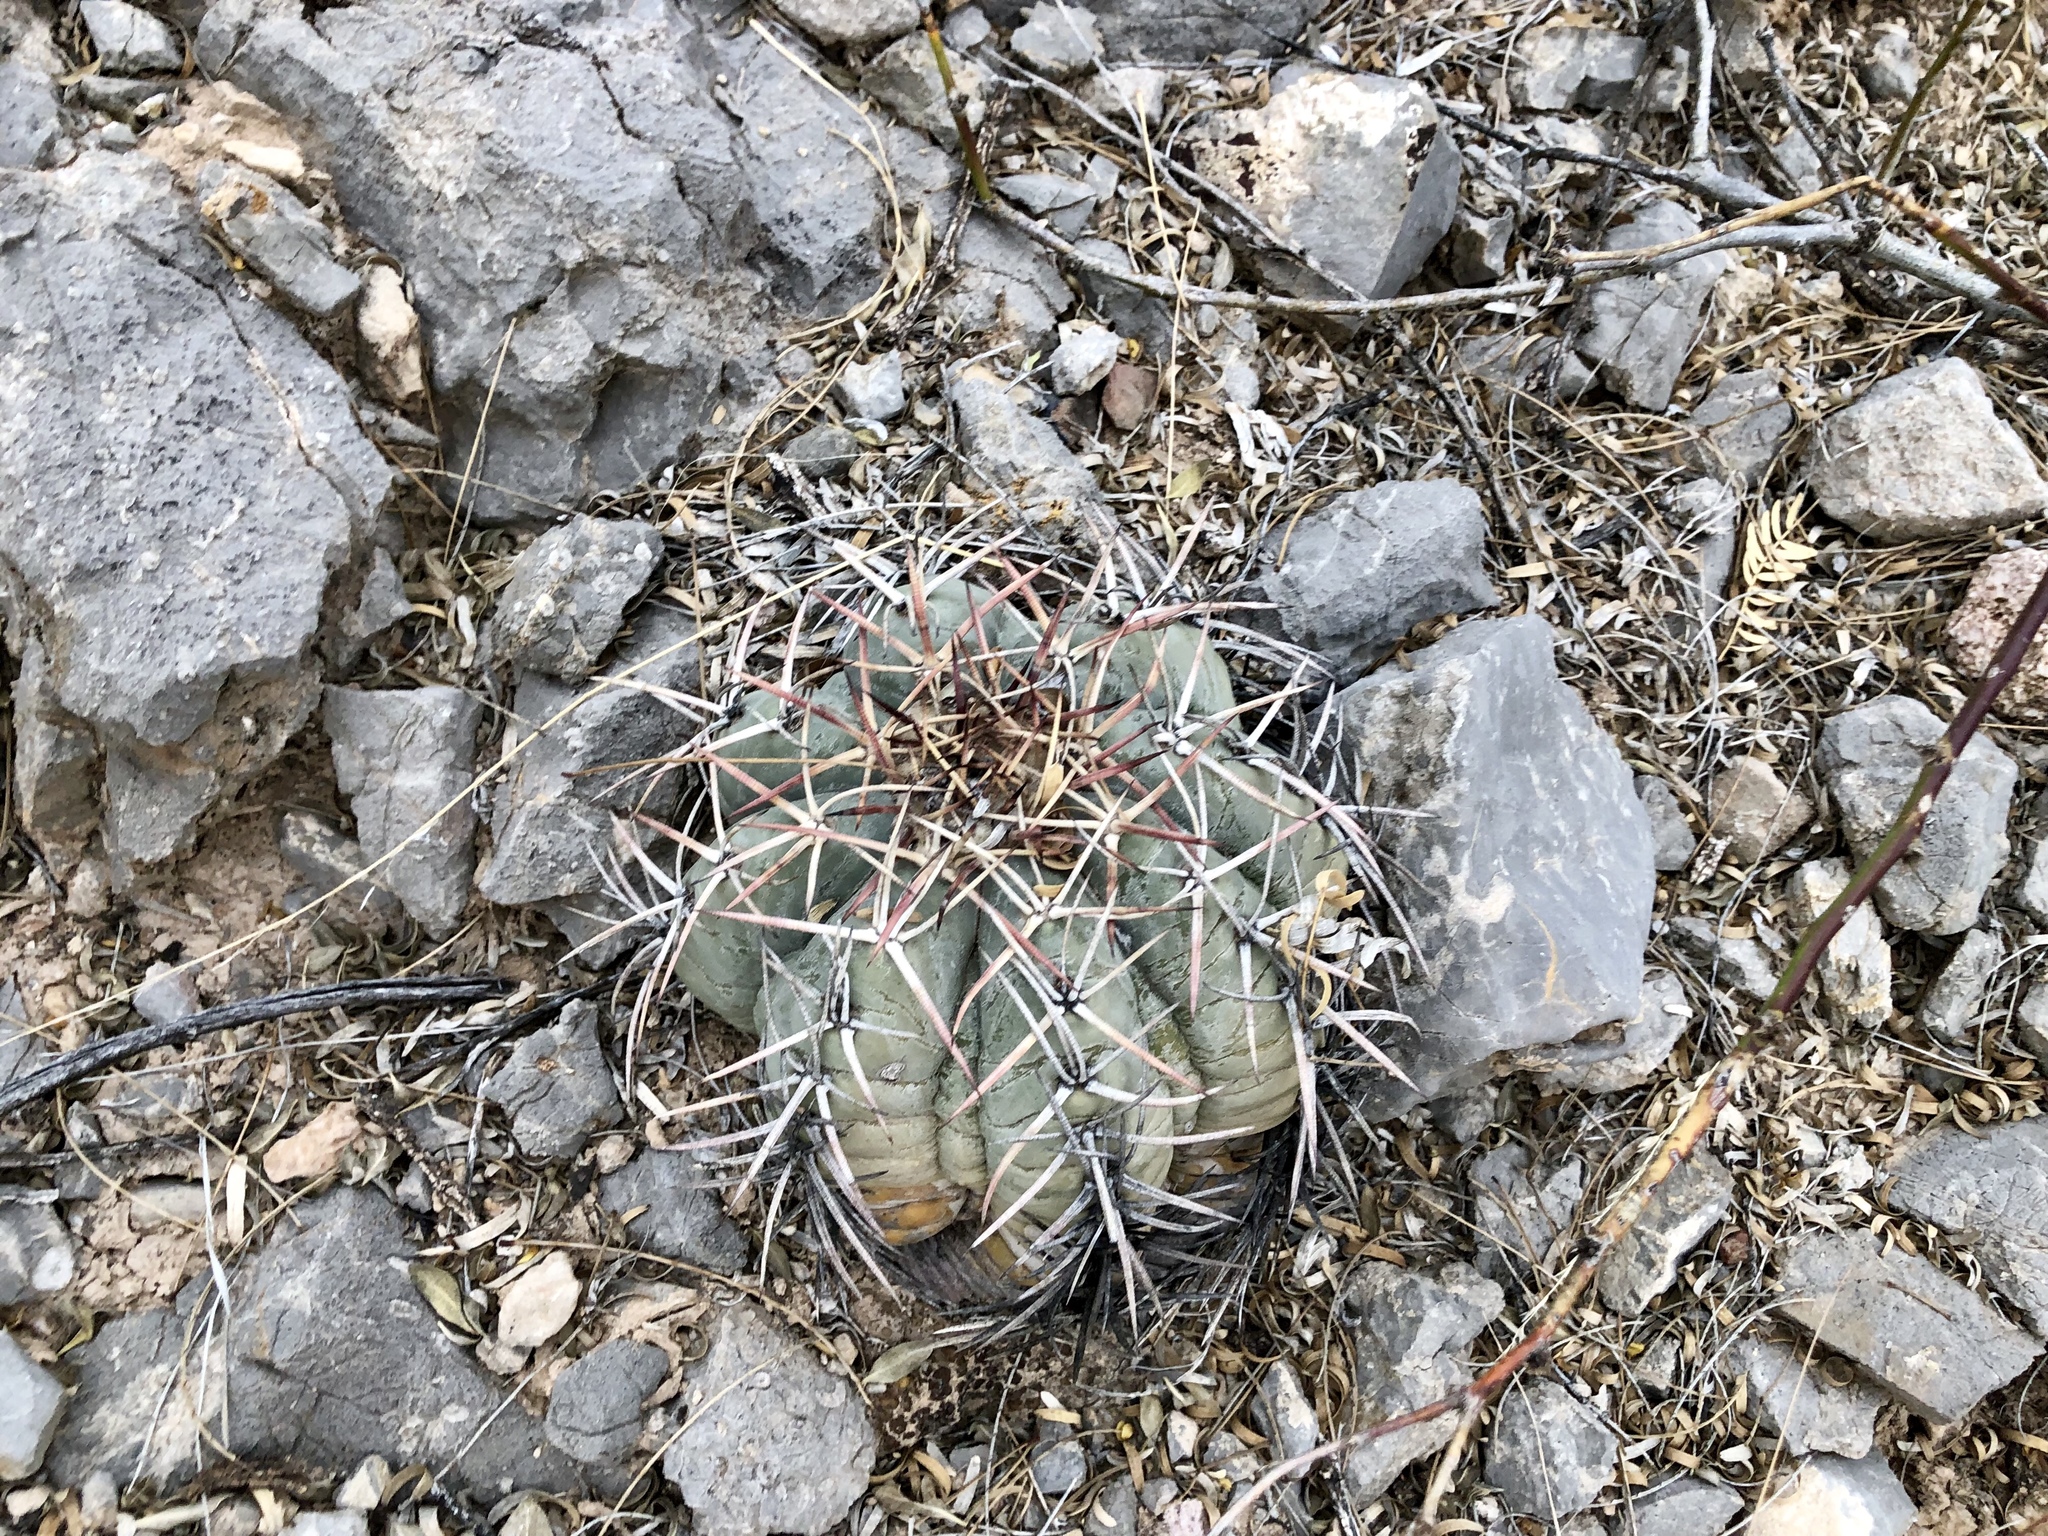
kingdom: Plantae
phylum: Tracheophyta
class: Magnoliopsida
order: Caryophyllales
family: Cactaceae
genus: Echinocactus
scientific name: Echinocactus horizonthalonius
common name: Devilshead
